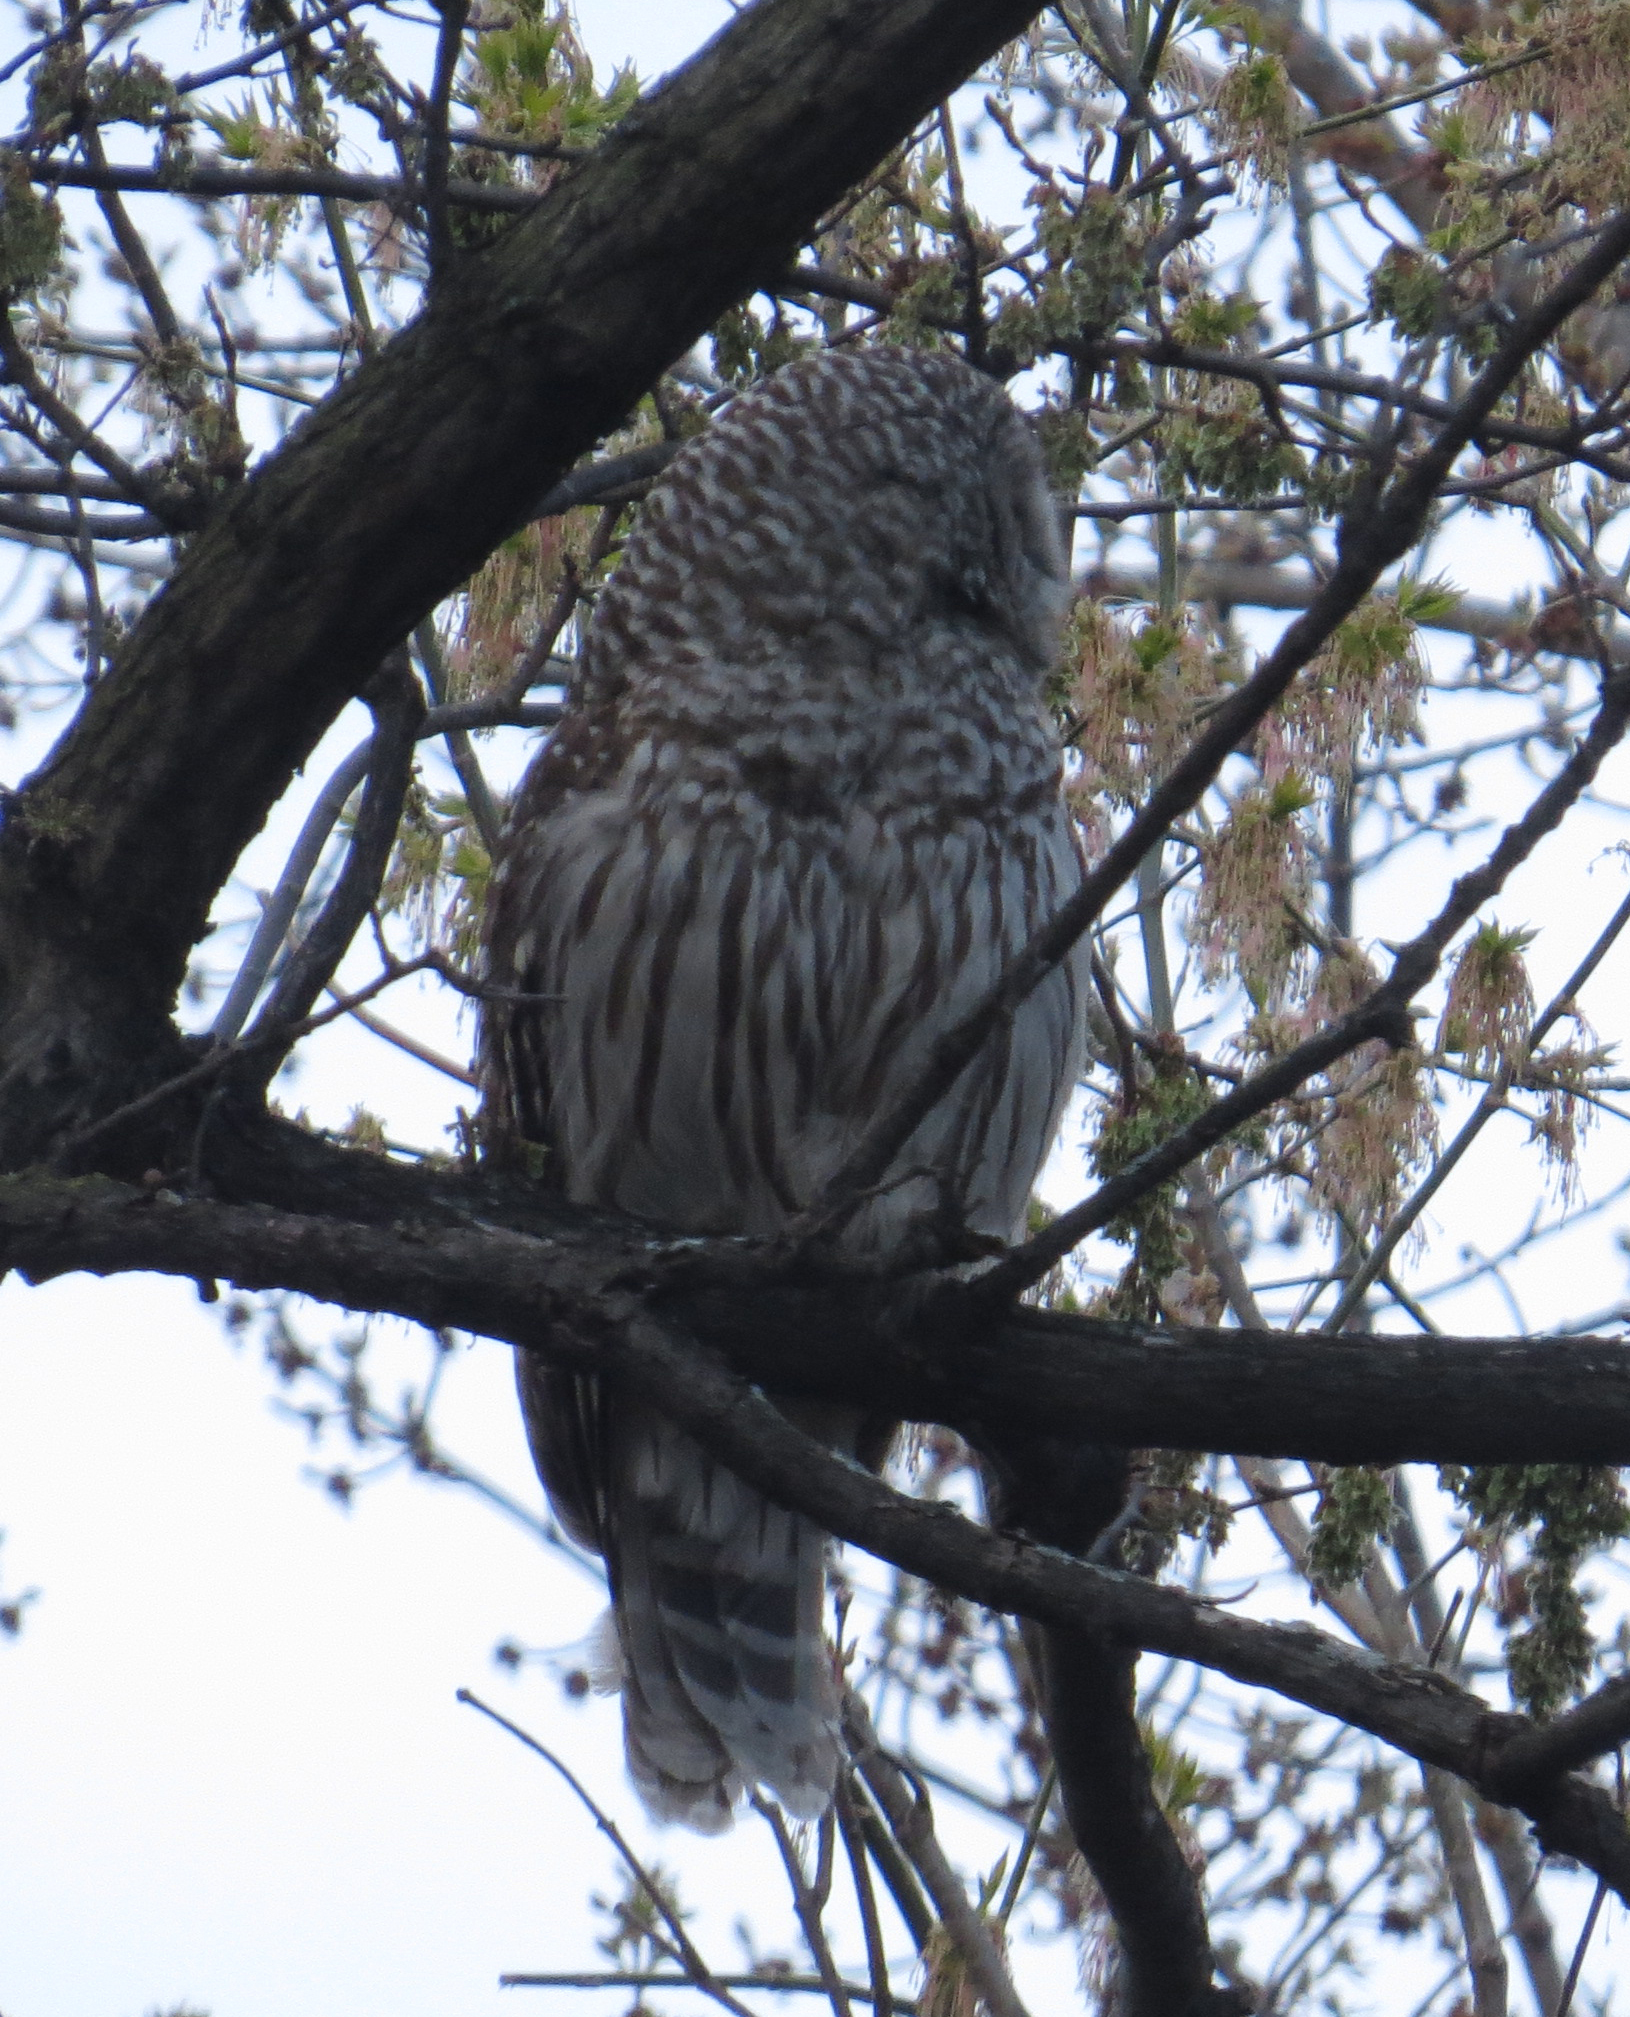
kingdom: Animalia
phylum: Chordata
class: Aves
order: Strigiformes
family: Strigidae
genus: Strix
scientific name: Strix varia
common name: Barred owl
